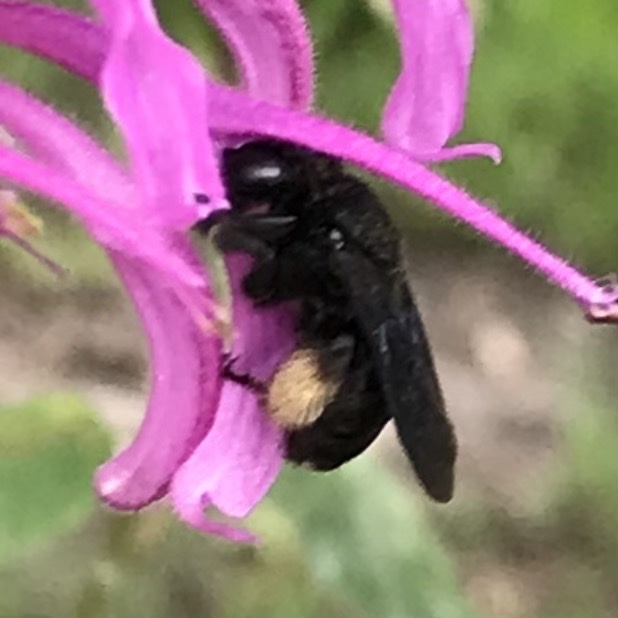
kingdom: Animalia
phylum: Arthropoda
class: Insecta
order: Hymenoptera
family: Apidae
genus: Melissodes
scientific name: Melissodes bimaculatus
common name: Two-spotted long-horned bee
